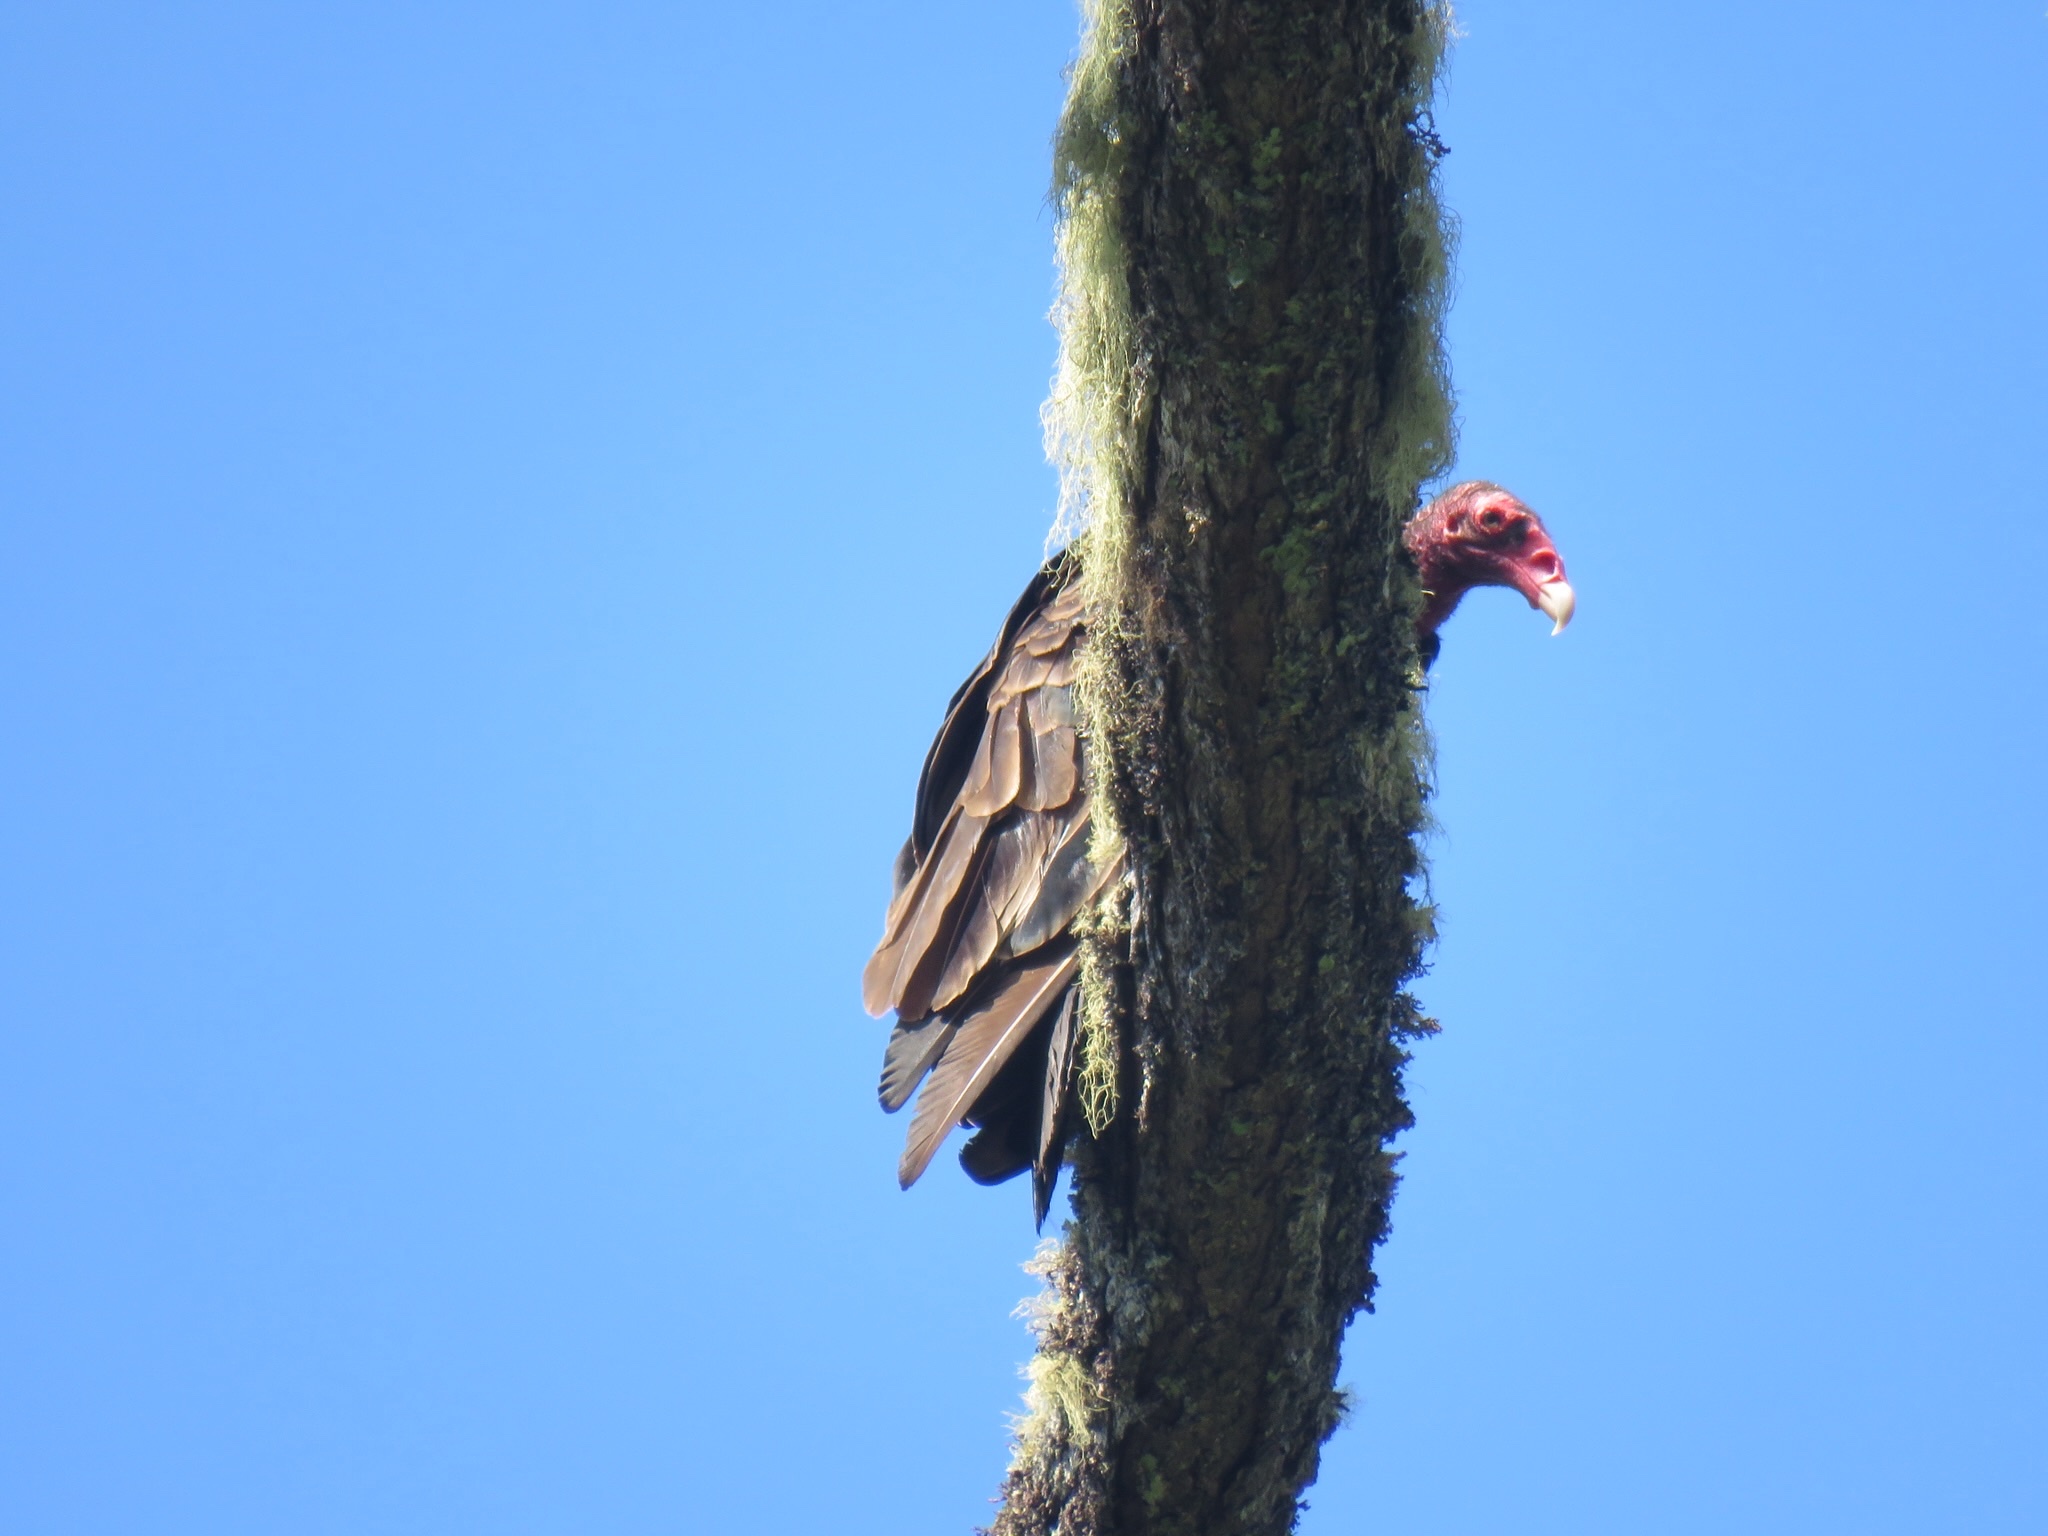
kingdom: Animalia
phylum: Chordata
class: Aves
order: Accipitriformes
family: Cathartidae
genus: Cathartes
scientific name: Cathartes aura
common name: Turkey vulture
